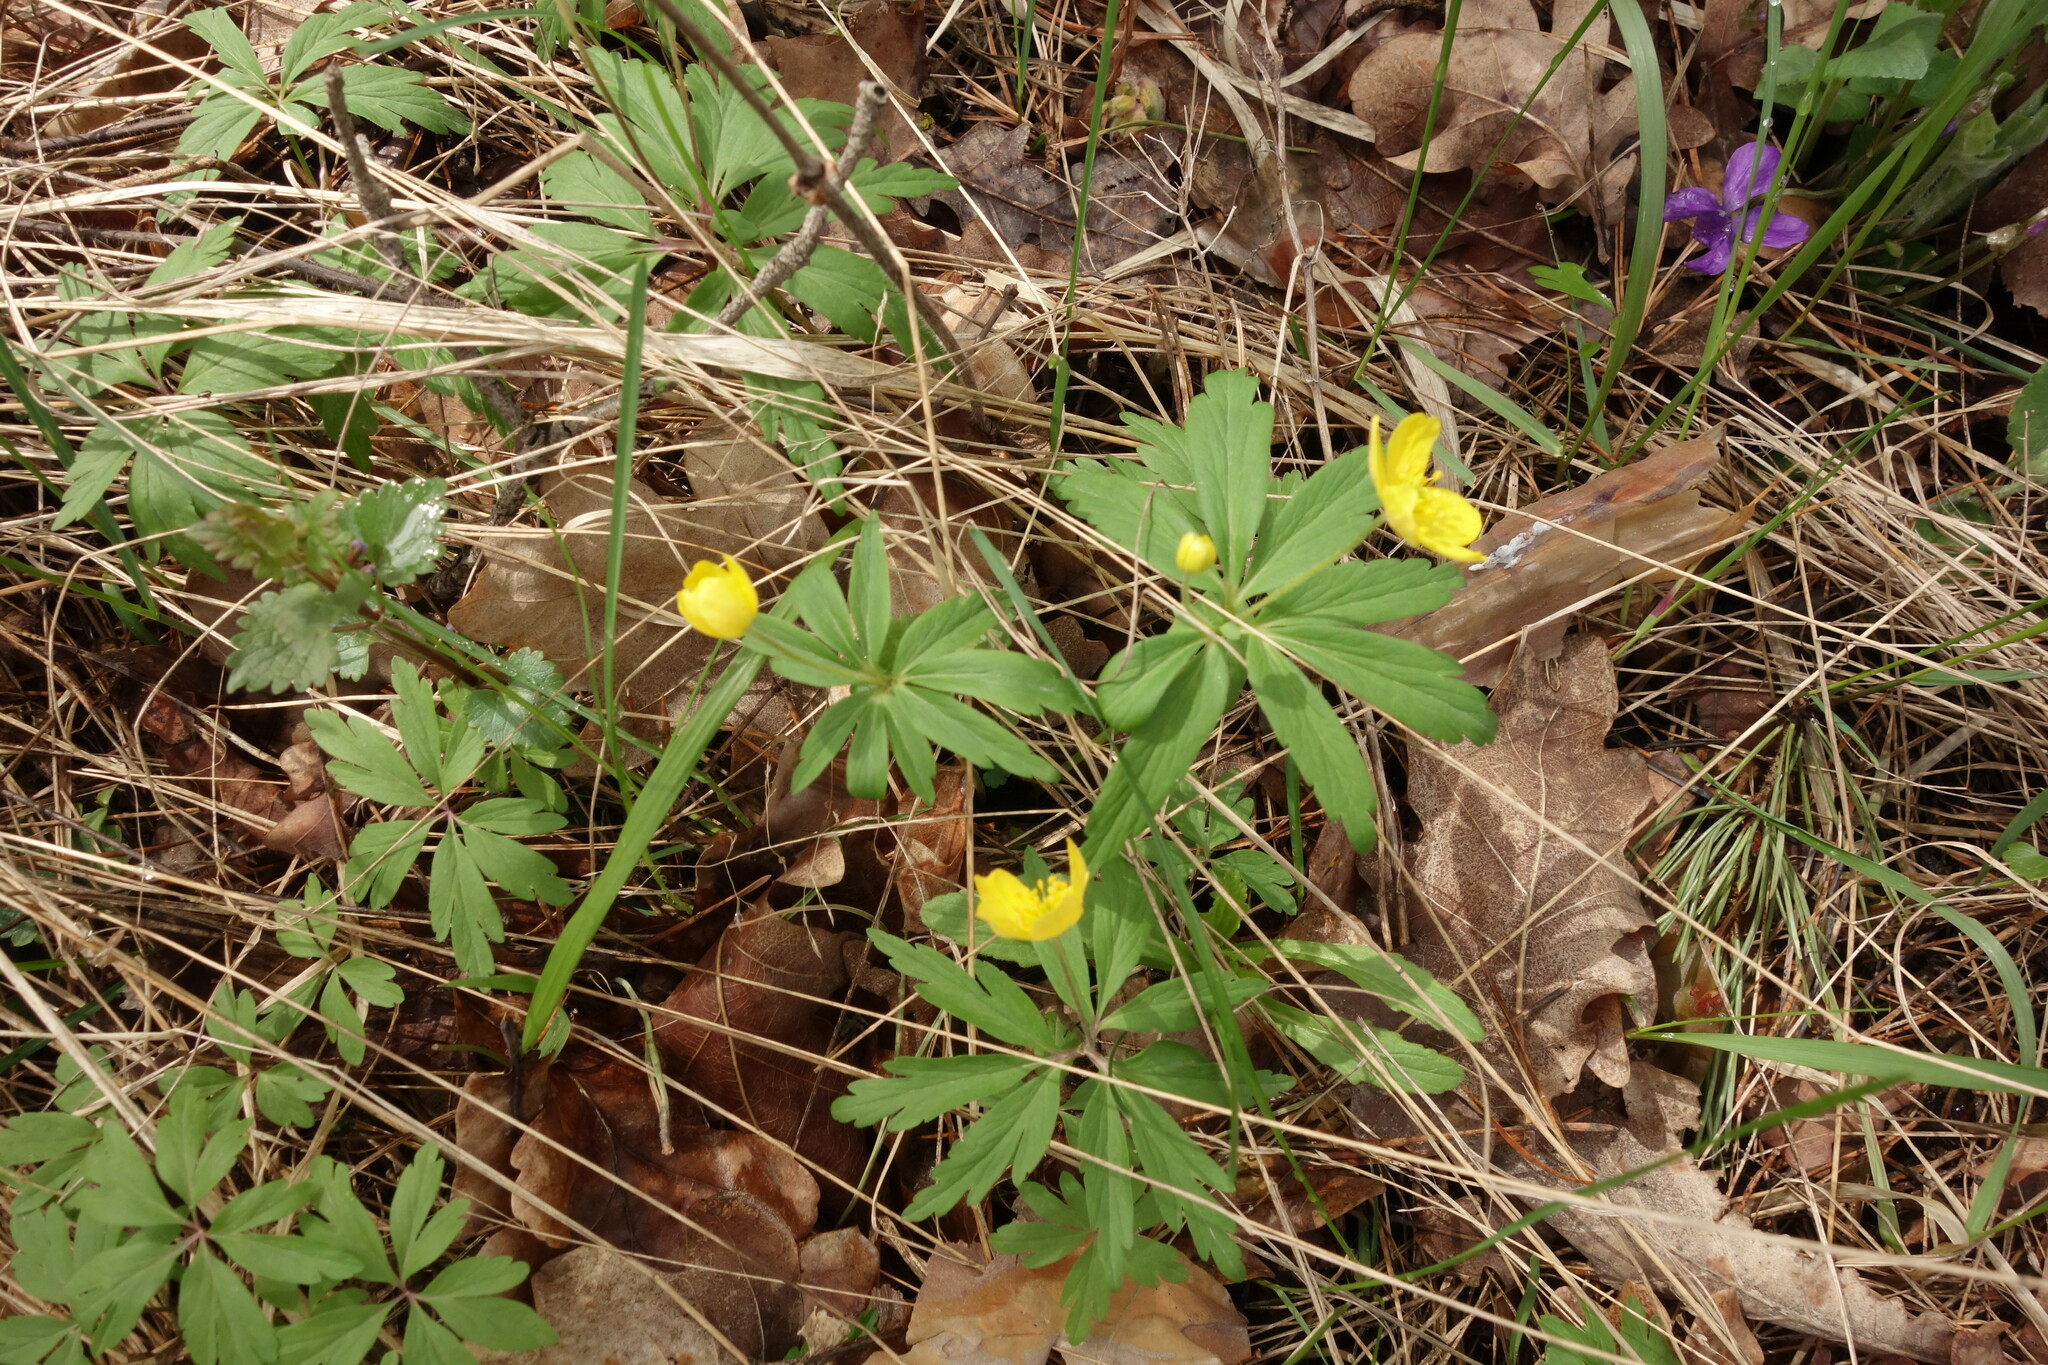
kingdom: Plantae
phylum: Tracheophyta
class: Magnoliopsida
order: Ranunculales
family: Ranunculaceae
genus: Anemone
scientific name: Anemone ranunculoides
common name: Yellow anemone
